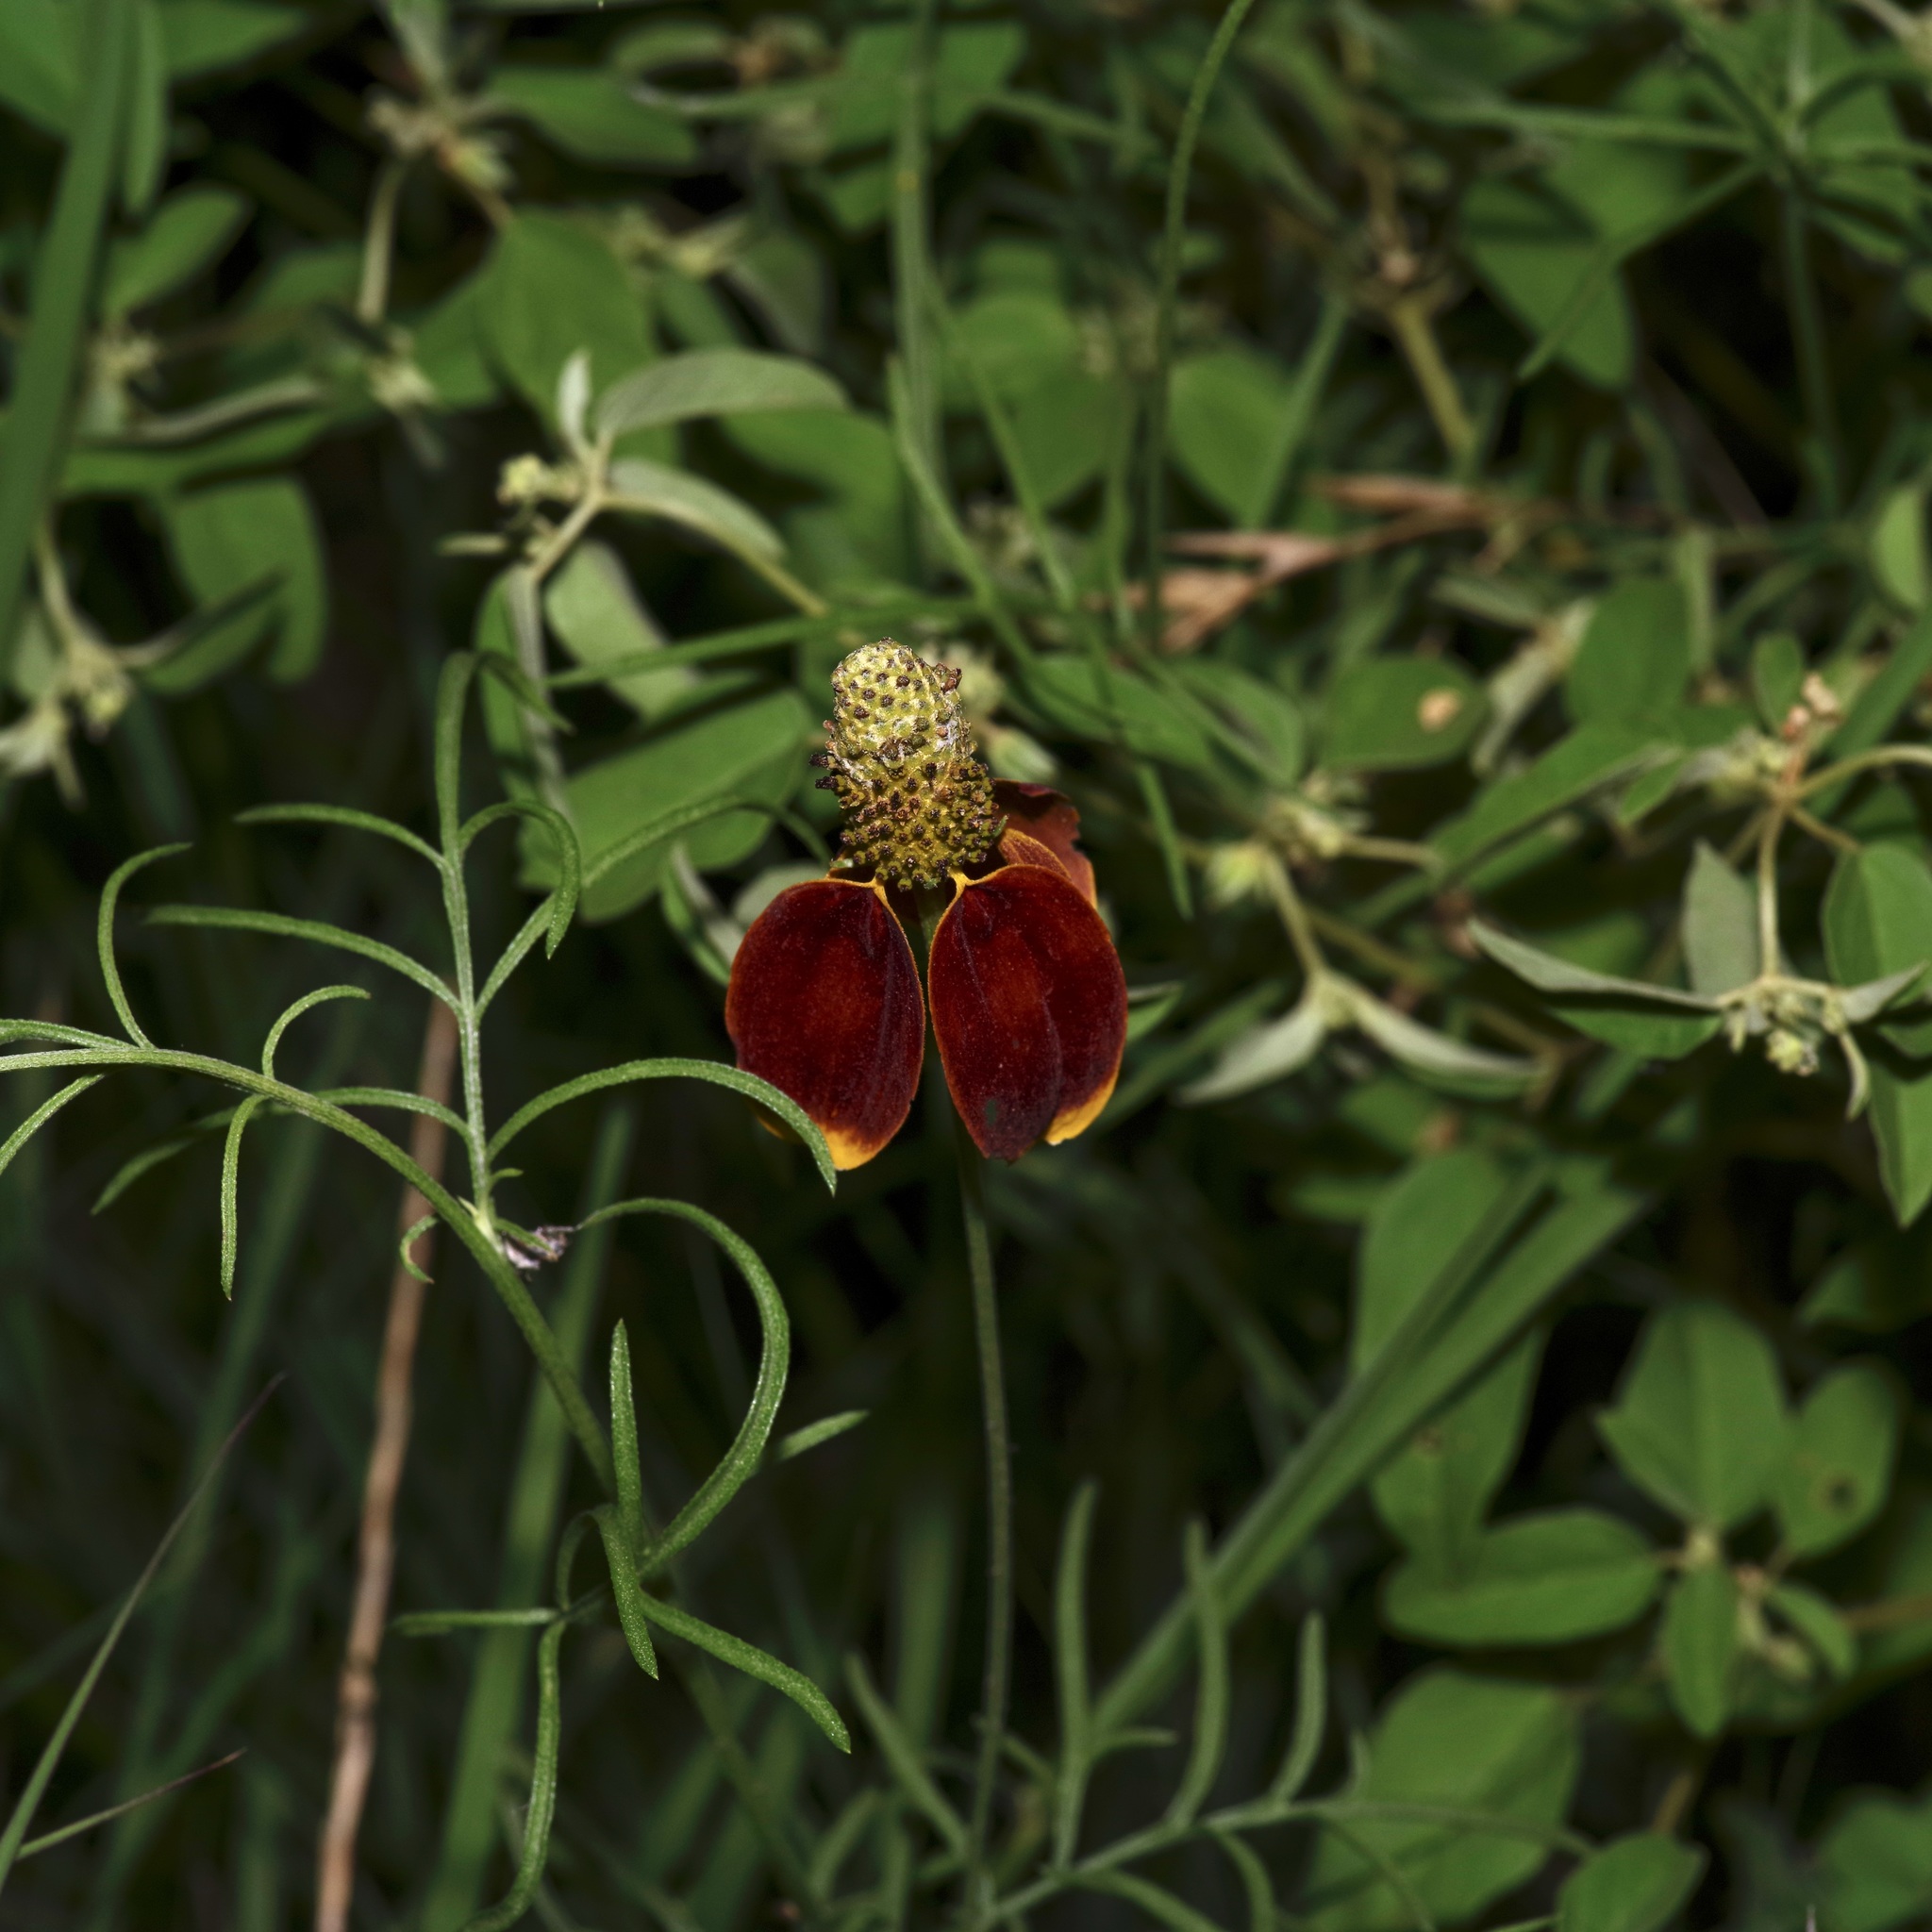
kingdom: Plantae
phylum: Tracheophyta
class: Magnoliopsida
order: Asterales
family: Asteraceae
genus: Ratibida
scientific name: Ratibida columnifera
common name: Prairie coneflower
